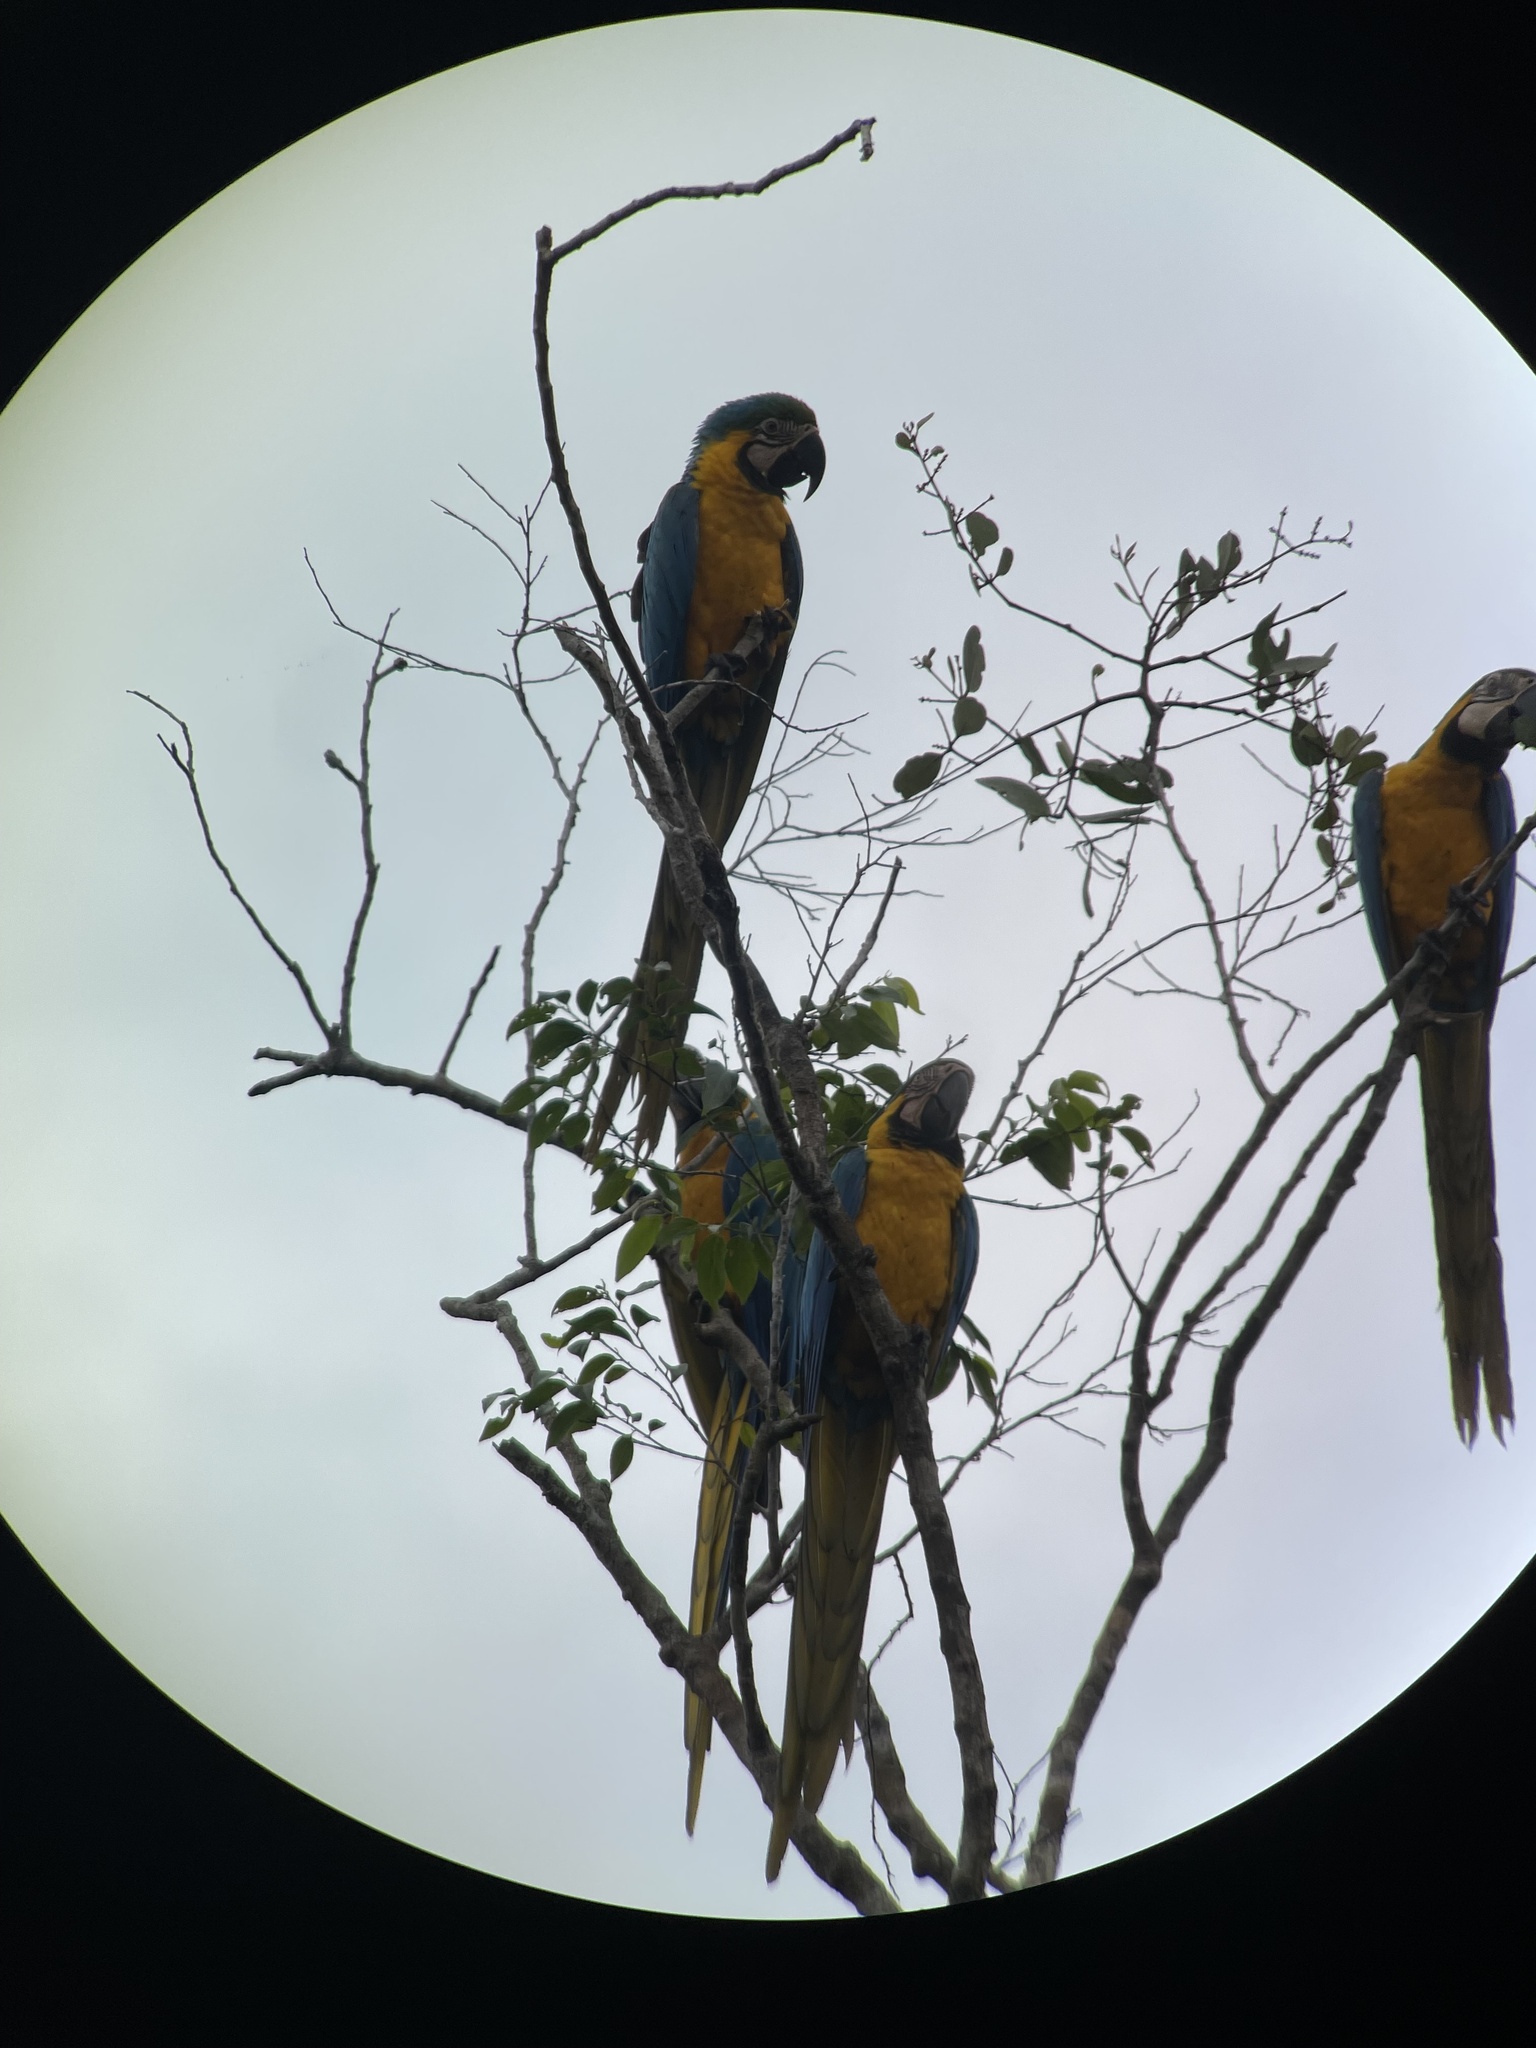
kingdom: Animalia
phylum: Chordata
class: Aves
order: Psittaciformes
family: Psittacidae
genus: Ara
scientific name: Ara ararauna
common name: Blue-and-yellow macaw
